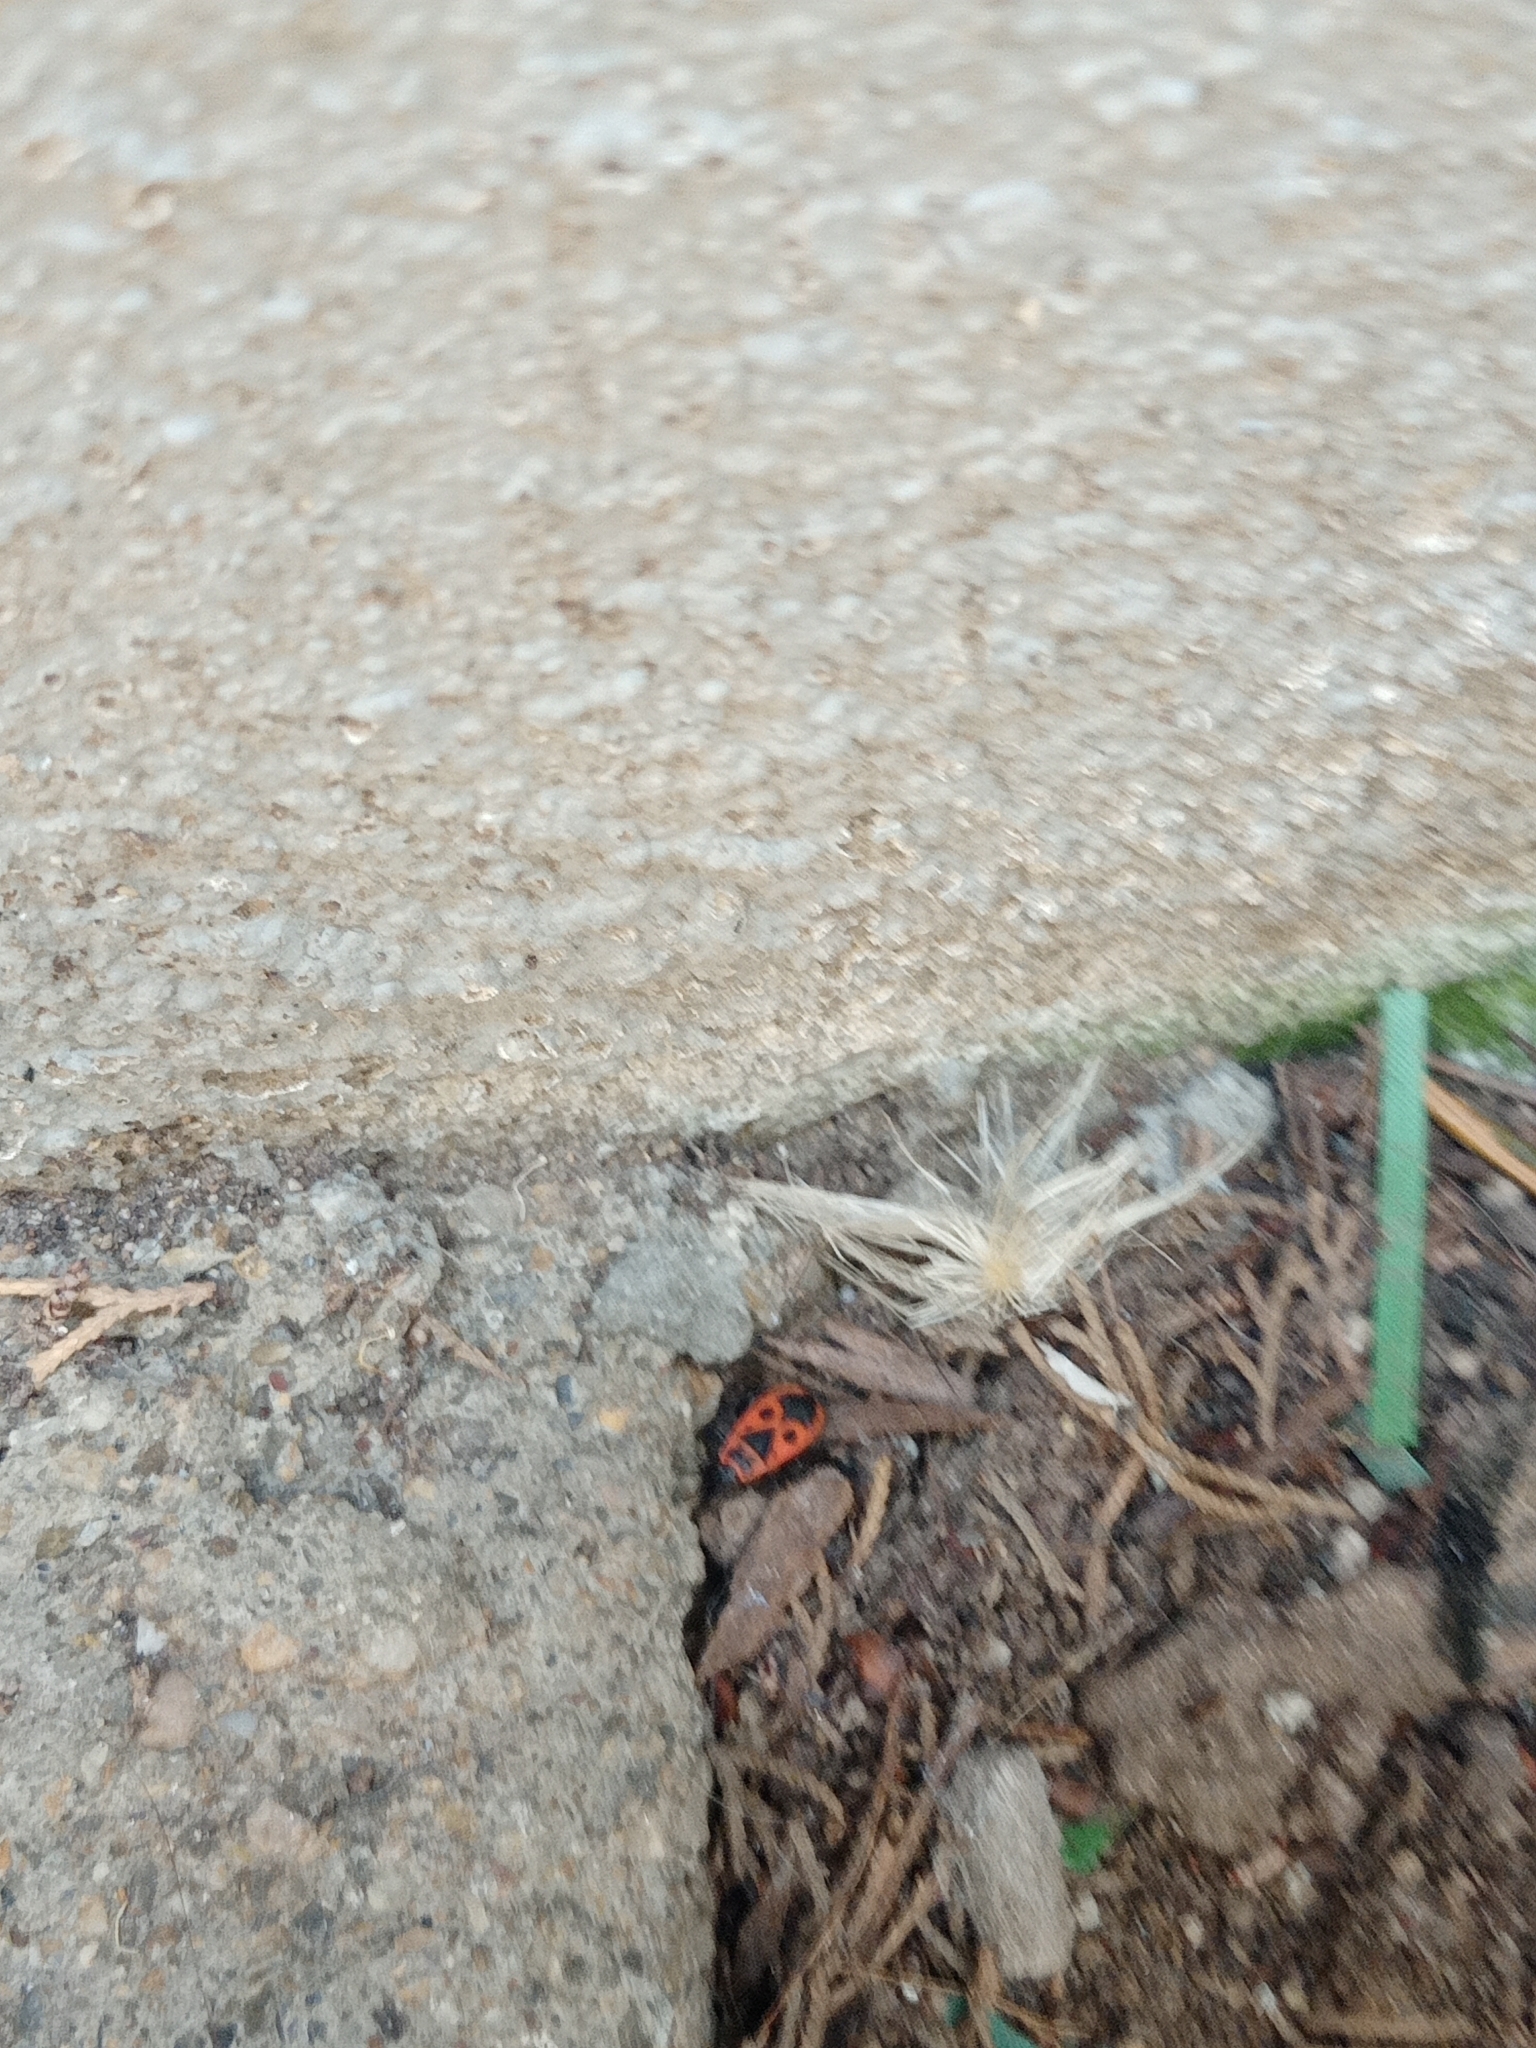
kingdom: Animalia
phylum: Arthropoda
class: Insecta
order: Hemiptera
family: Pyrrhocoridae
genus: Pyrrhocoris
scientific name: Pyrrhocoris apterus
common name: Firebug
